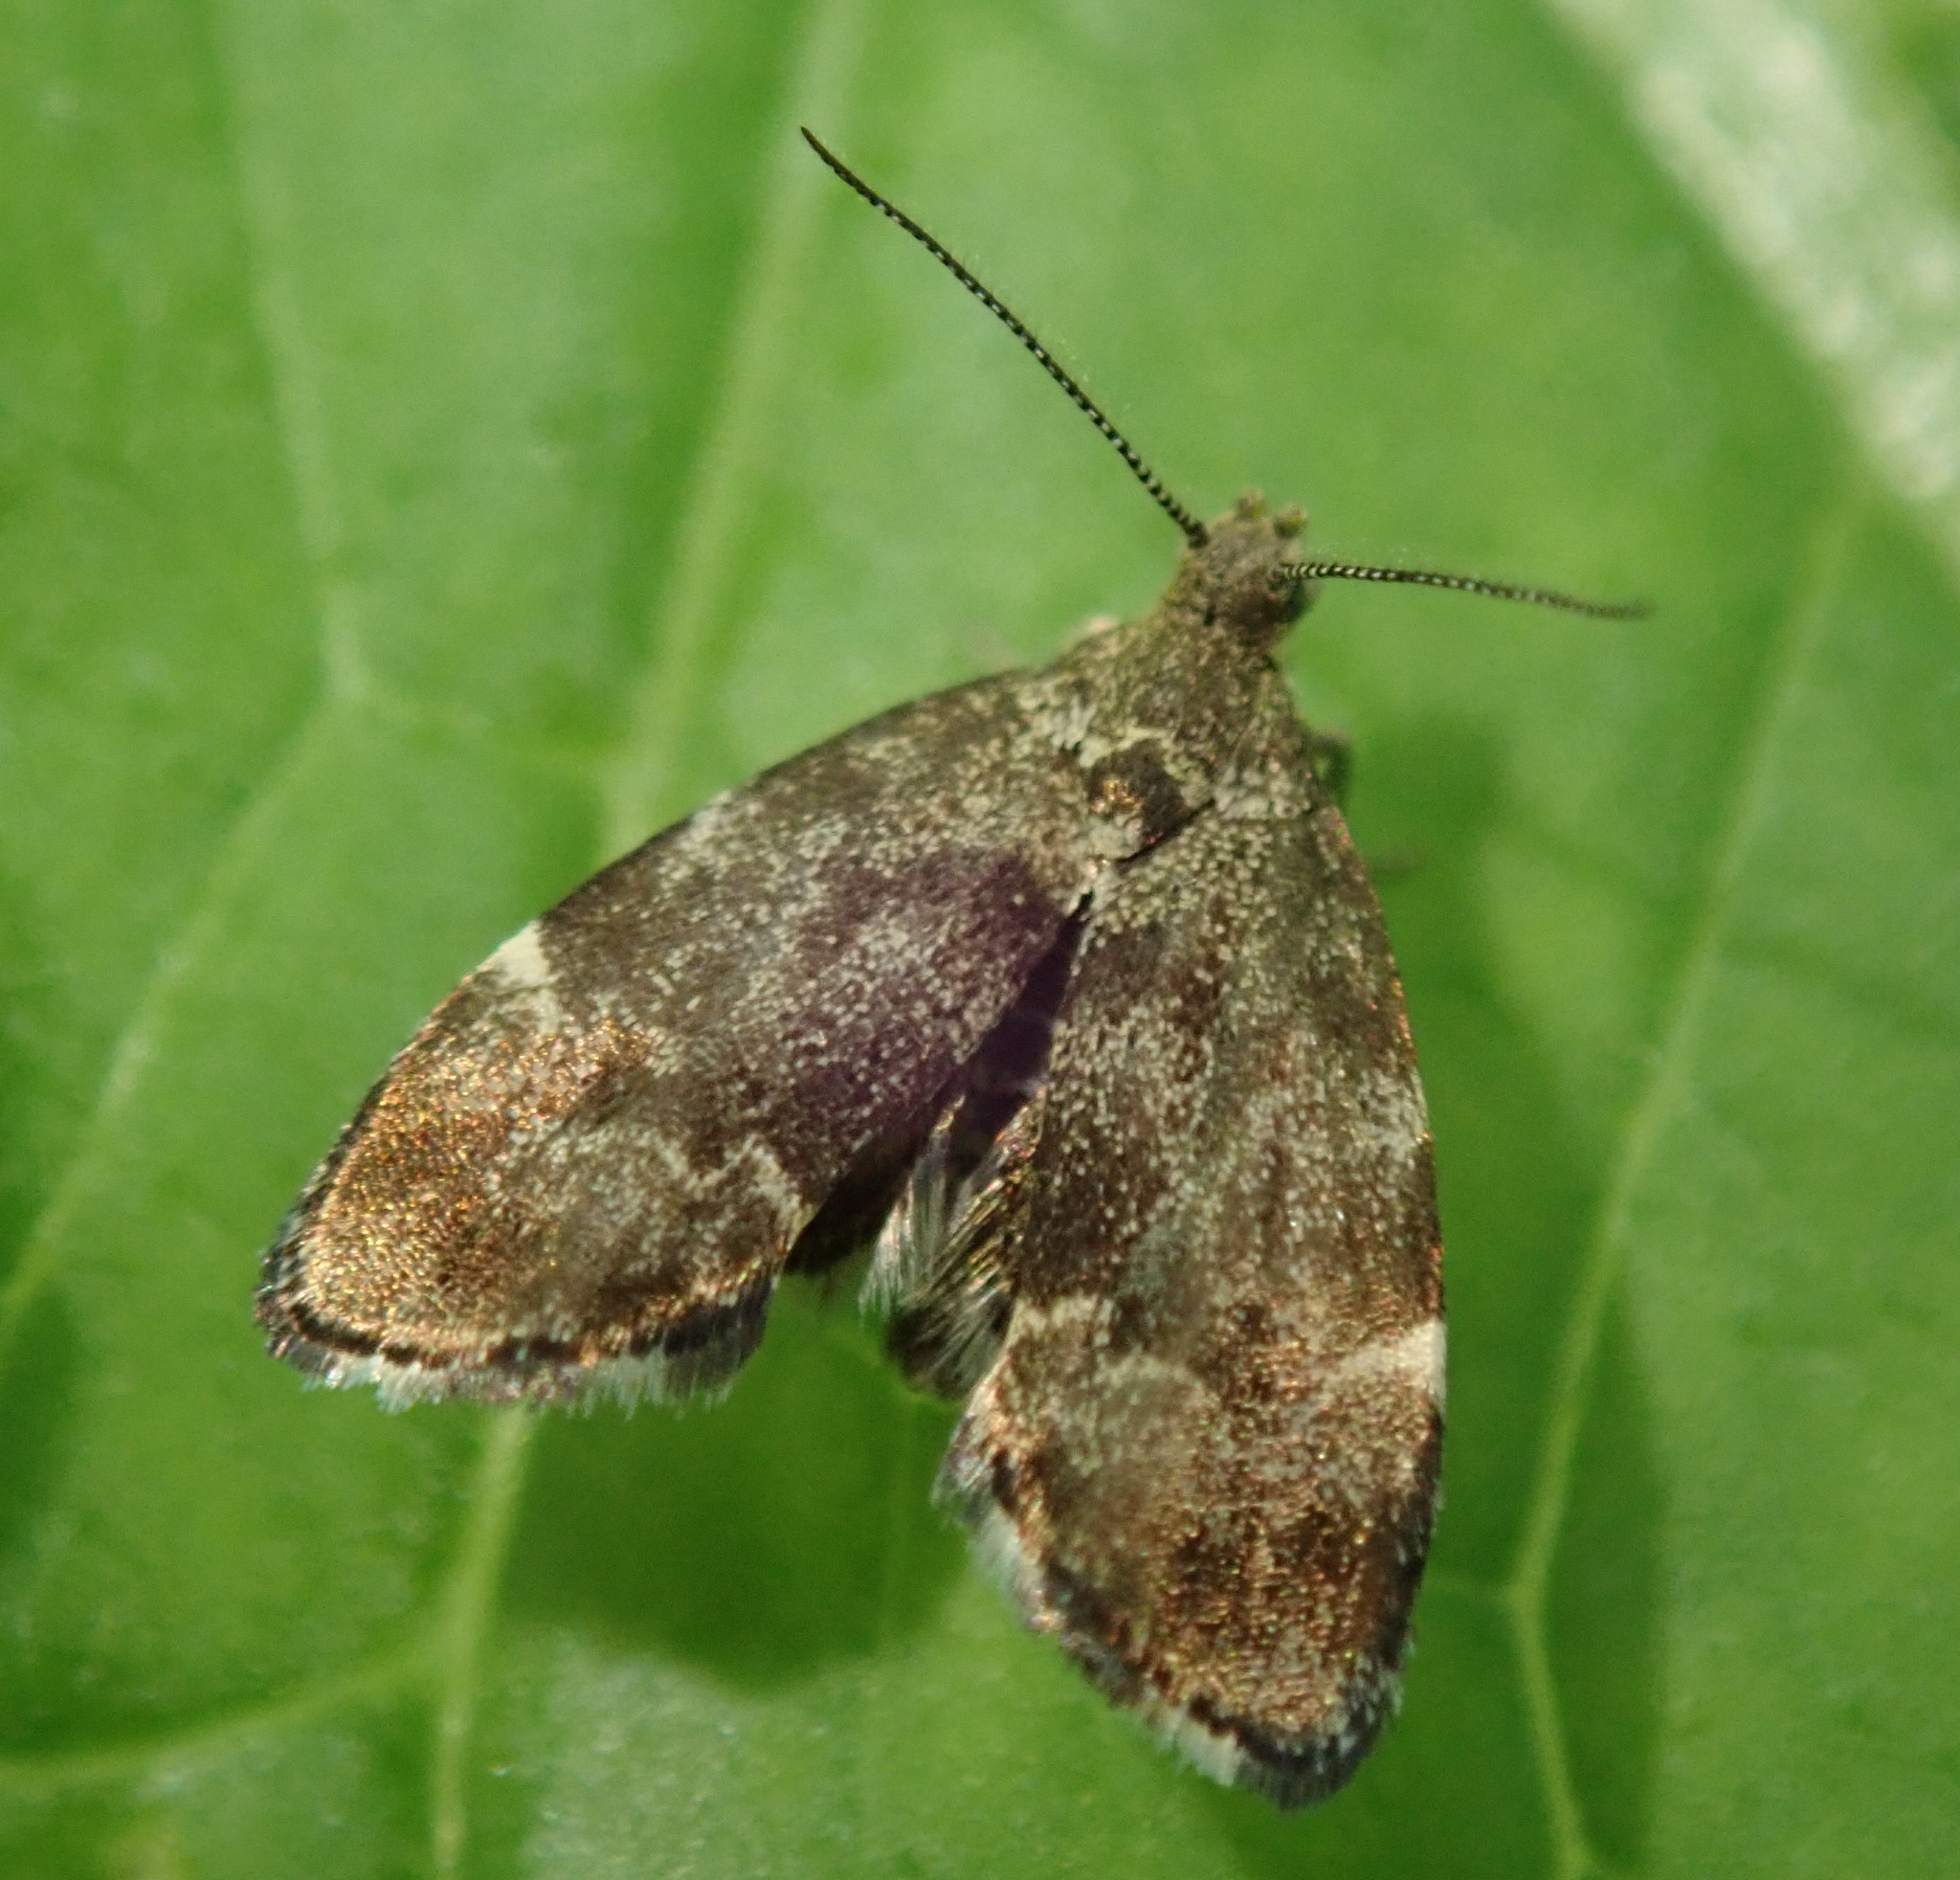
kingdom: Animalia
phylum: Arthropoda
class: Insecta
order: Lepidoptera
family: Choreutidae
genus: Anthophila
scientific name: Anthophila fabriciana
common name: Nettle-tap
